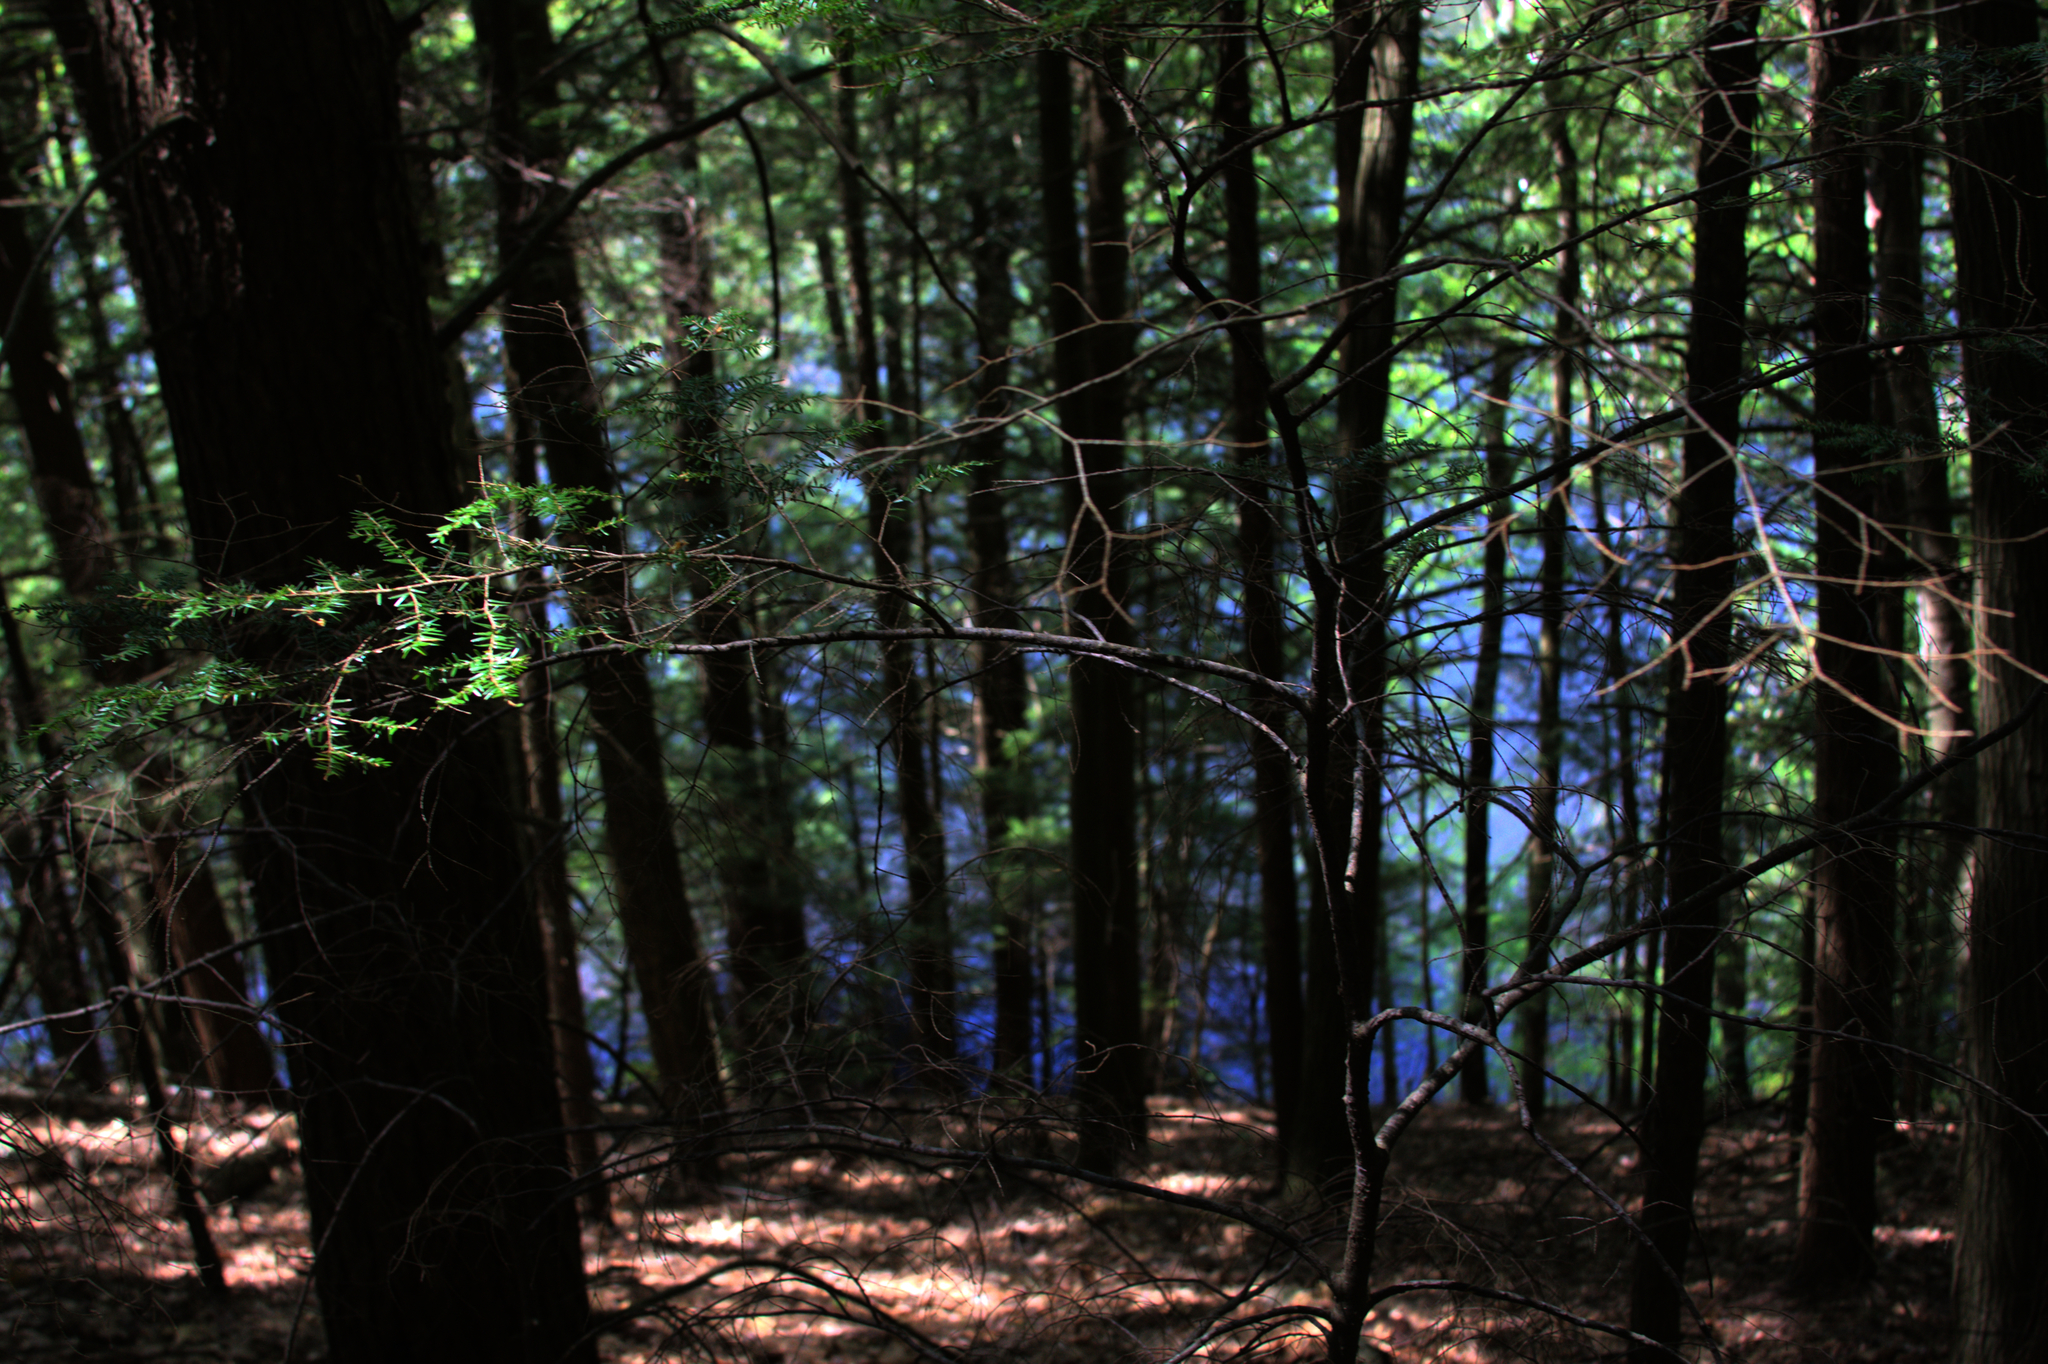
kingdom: Plantae
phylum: Tracheophyta
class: Pinopsida
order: Pinales
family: Pinaceae
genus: Tsuga
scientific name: Tsuga canadensis
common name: Eastern hemlock
